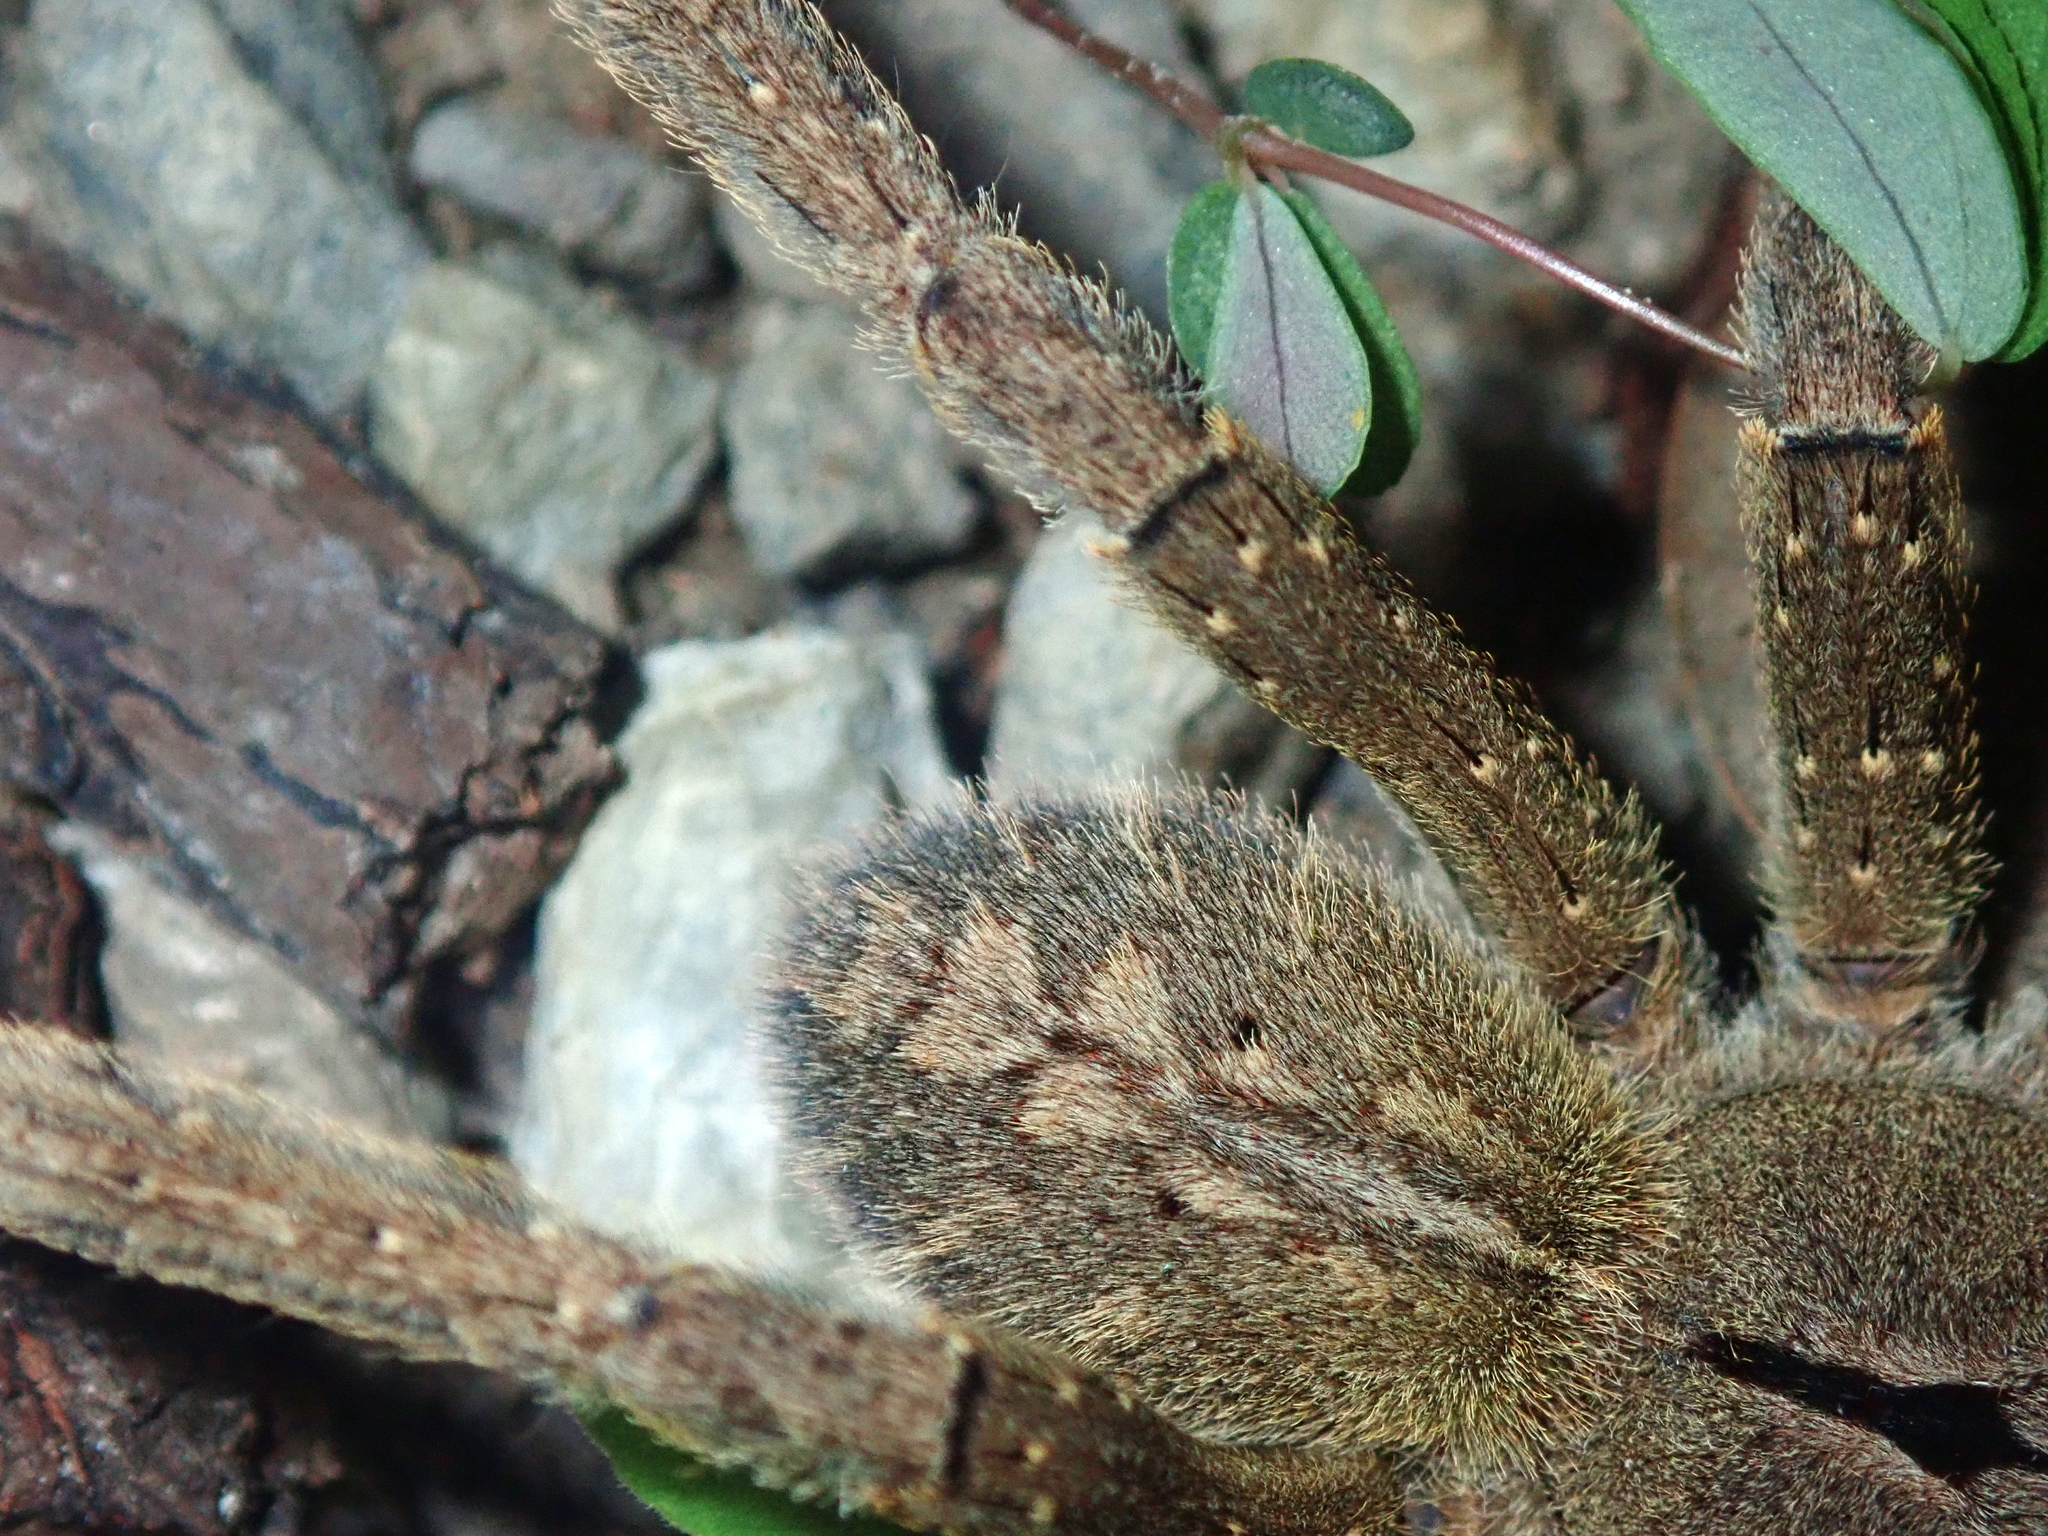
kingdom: Animalia
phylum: Arthropoda
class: Arachnida
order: Araneae
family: Ctenidae
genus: Phoneutria
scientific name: Phoneutria eickstedtae
